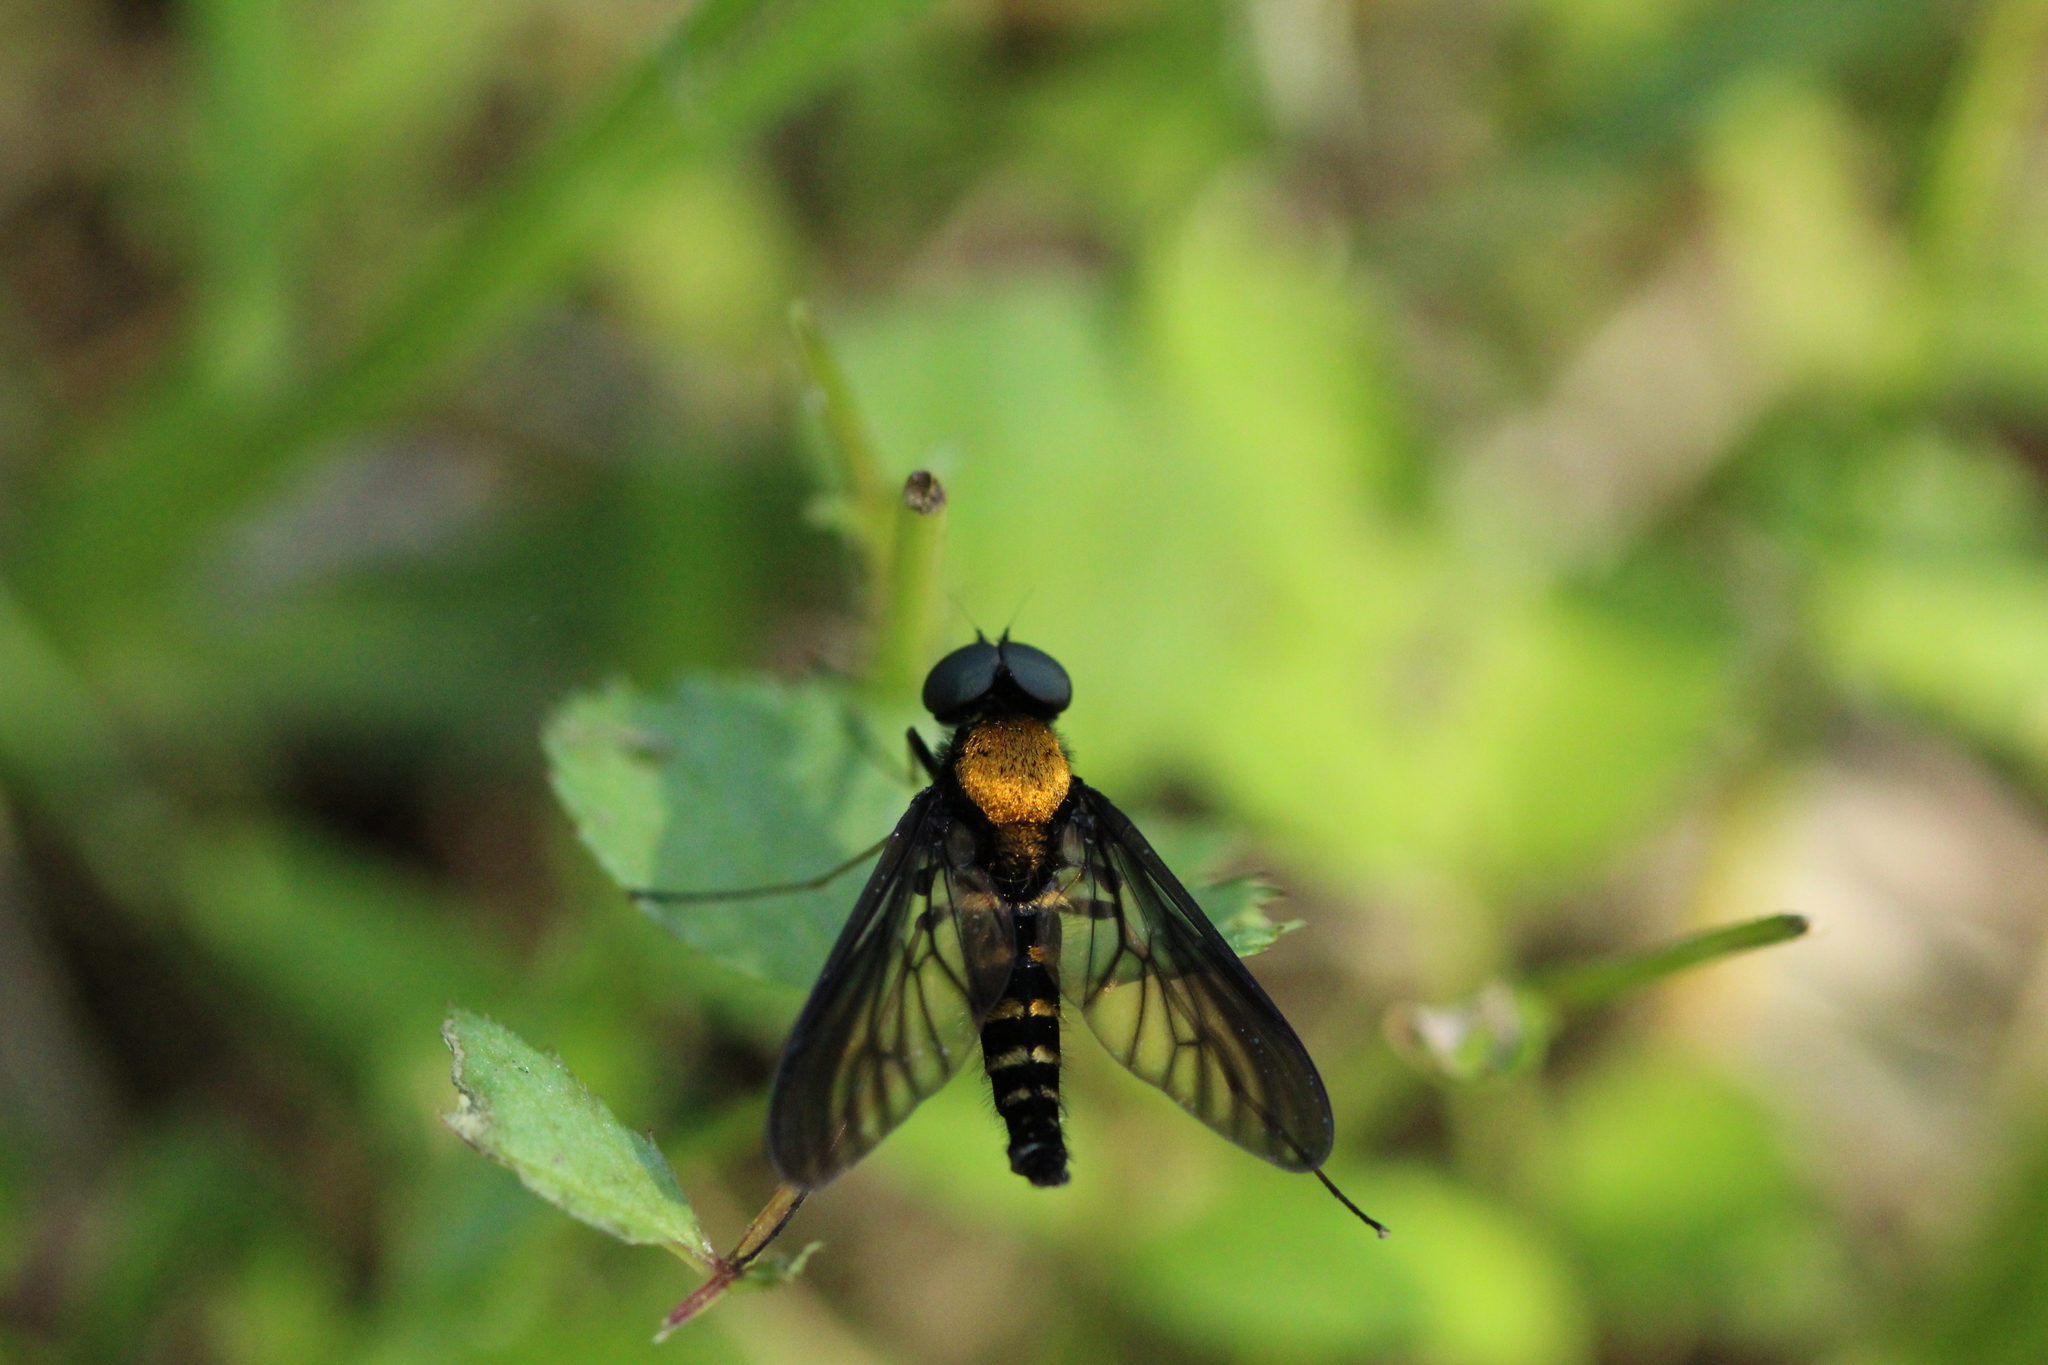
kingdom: Animalia
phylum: Arthropoda
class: Insecta
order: Diptera
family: Rhagionidae
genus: Chrysopilus
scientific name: Chrysopilus thoracicus
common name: Golden-backed snipe fly
